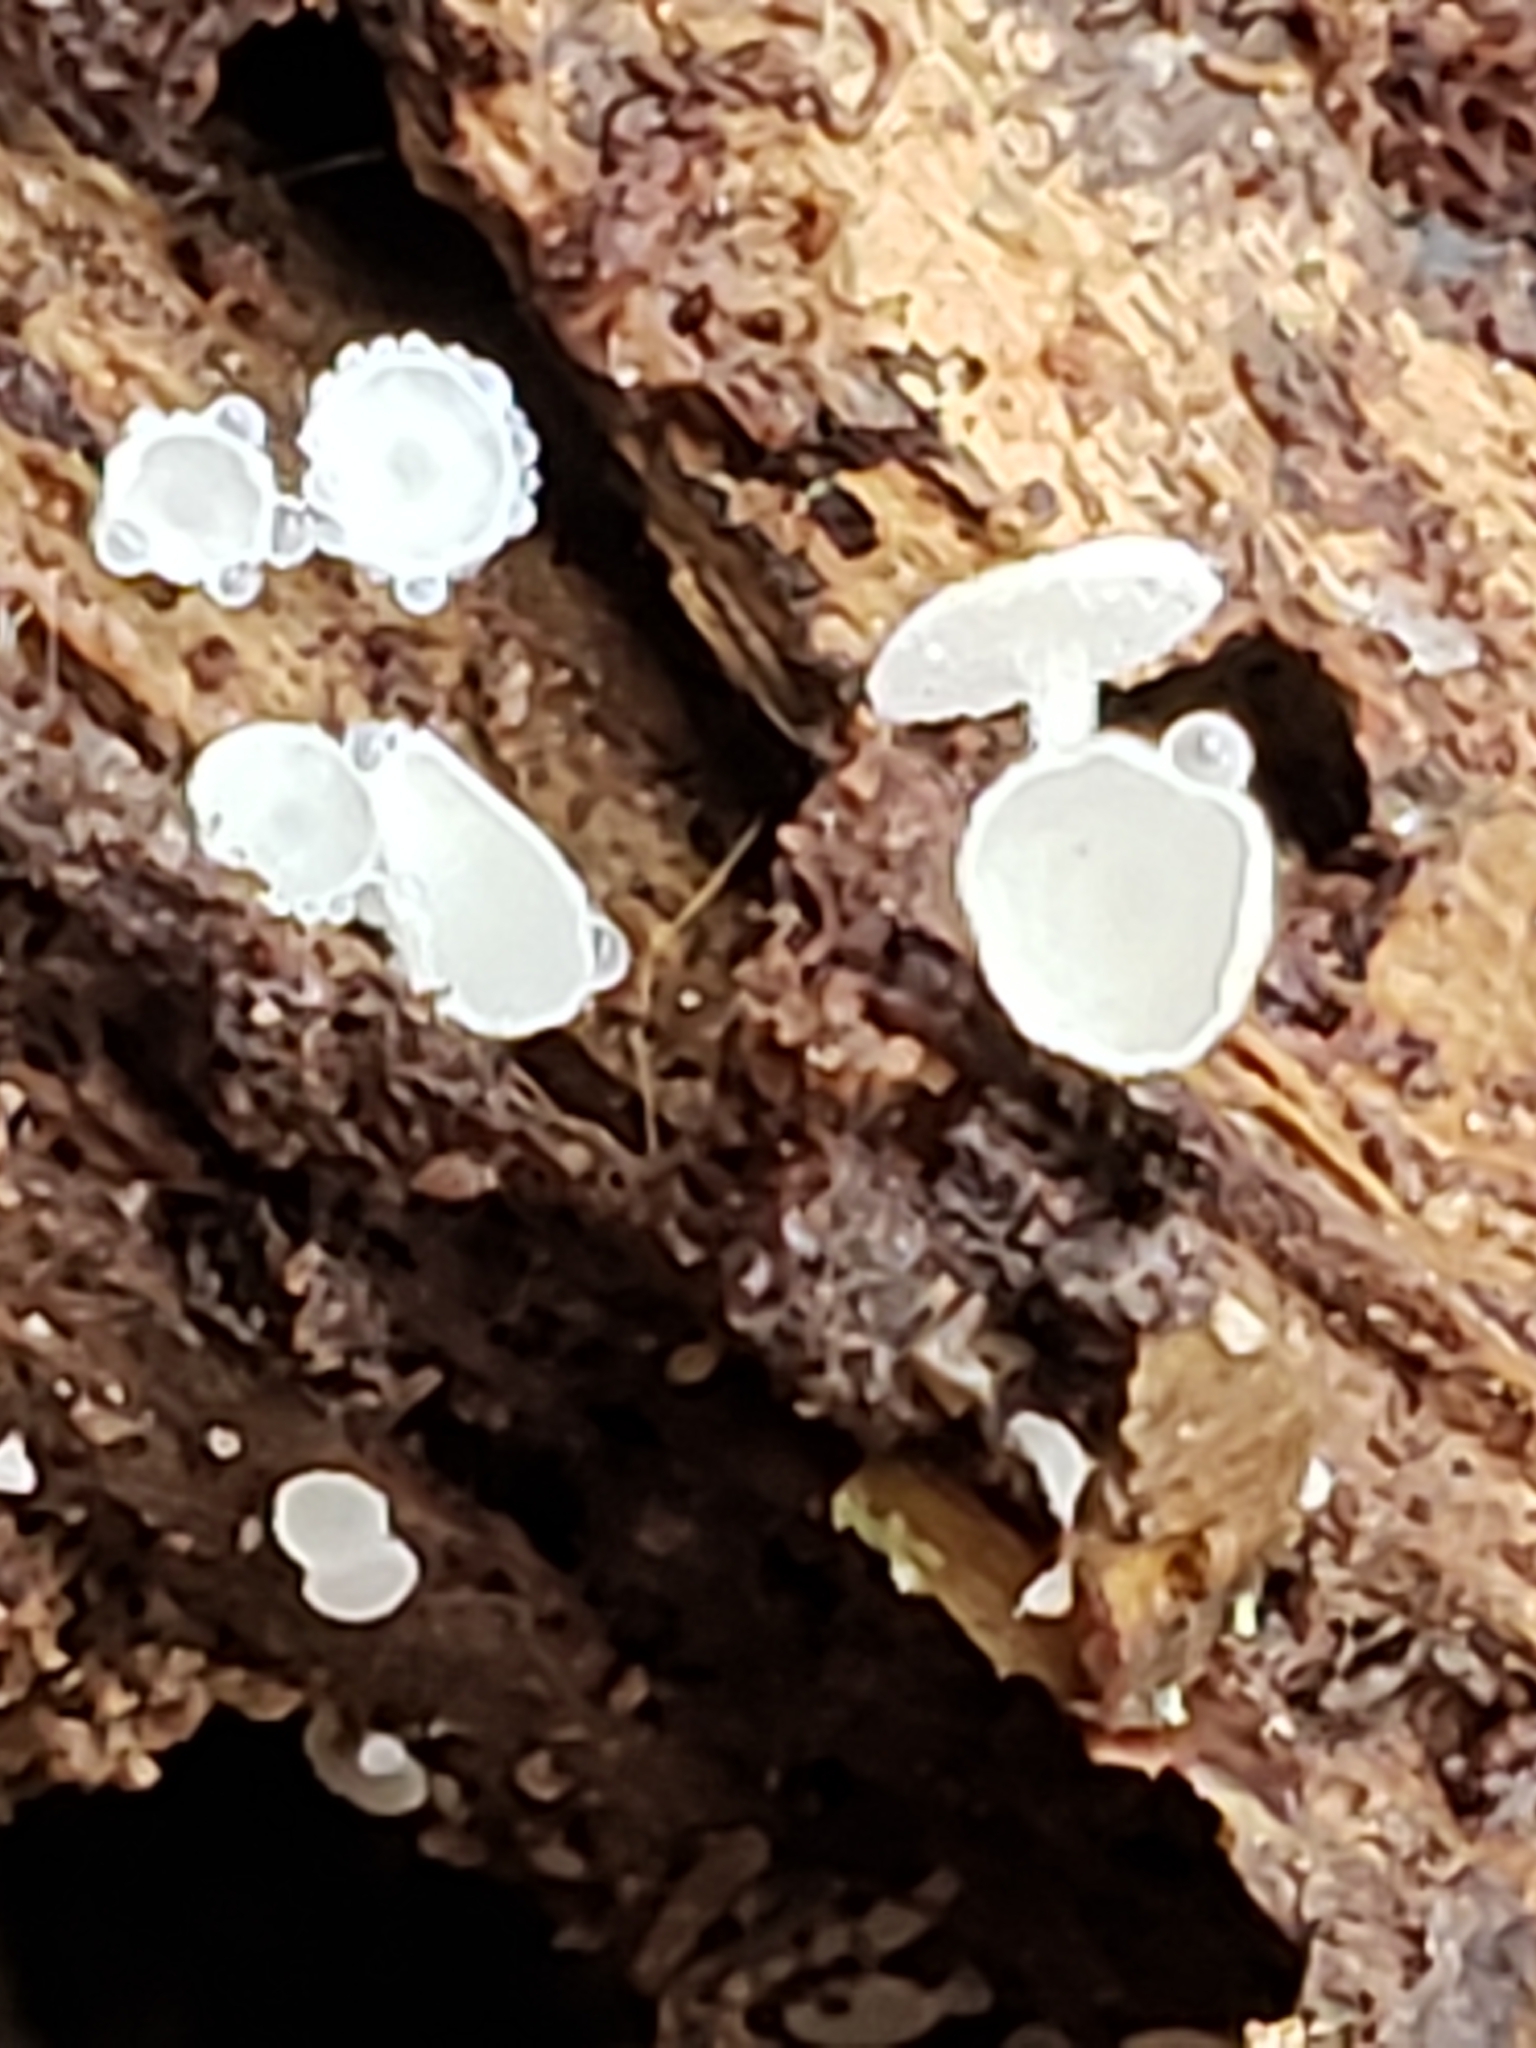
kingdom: Fungi
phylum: Ascomycota
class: Leotiomycetes
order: Helotiales
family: Lachnaceae
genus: Lachnum
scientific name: Lachnum virgineum
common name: Snowy disco
